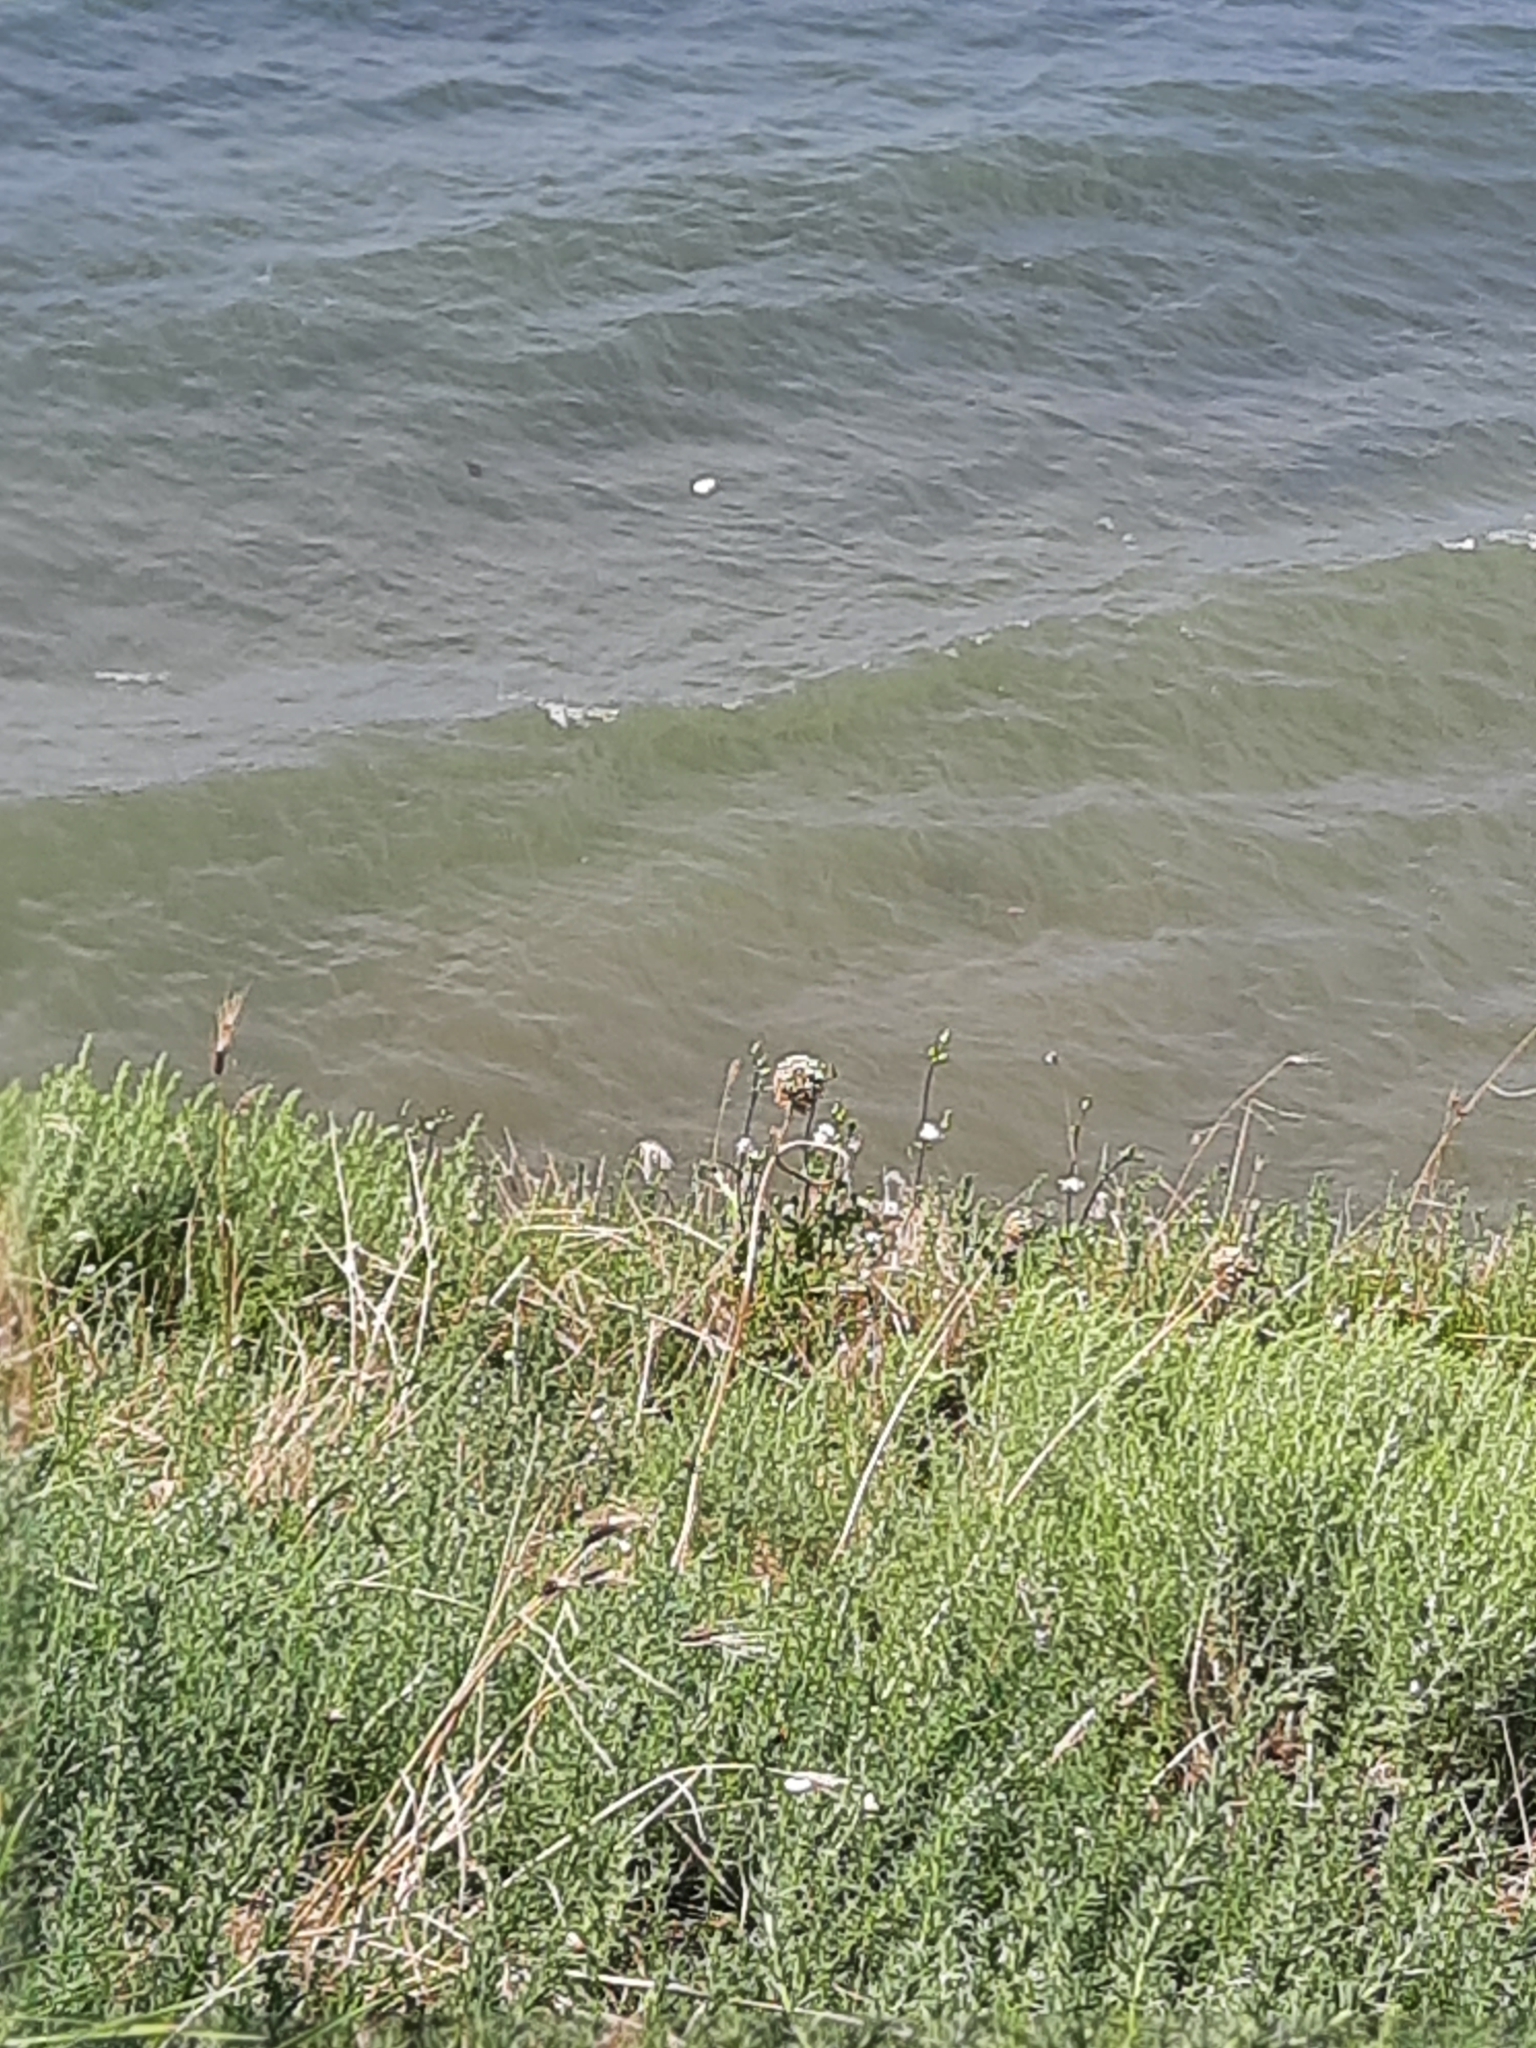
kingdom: Plantae
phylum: Tracheophyta
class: Liliopsida
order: Asparagales
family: Amaryllidaceae
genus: Allium
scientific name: Allium atroviolaceum
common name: Broadleaf wild leek
